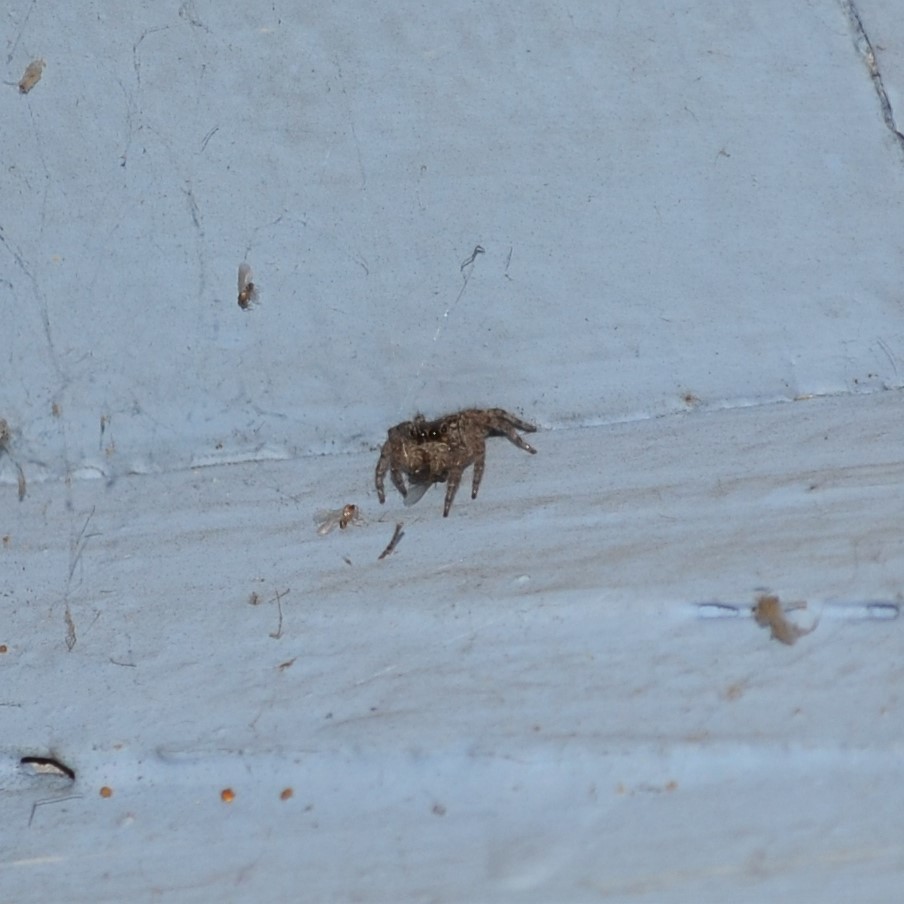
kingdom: Animalia
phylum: Arthropoda
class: Arachnida
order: Araneae
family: Salticidae
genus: Plexippus
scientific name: Plexippus paykulli
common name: Pantropical jumper
